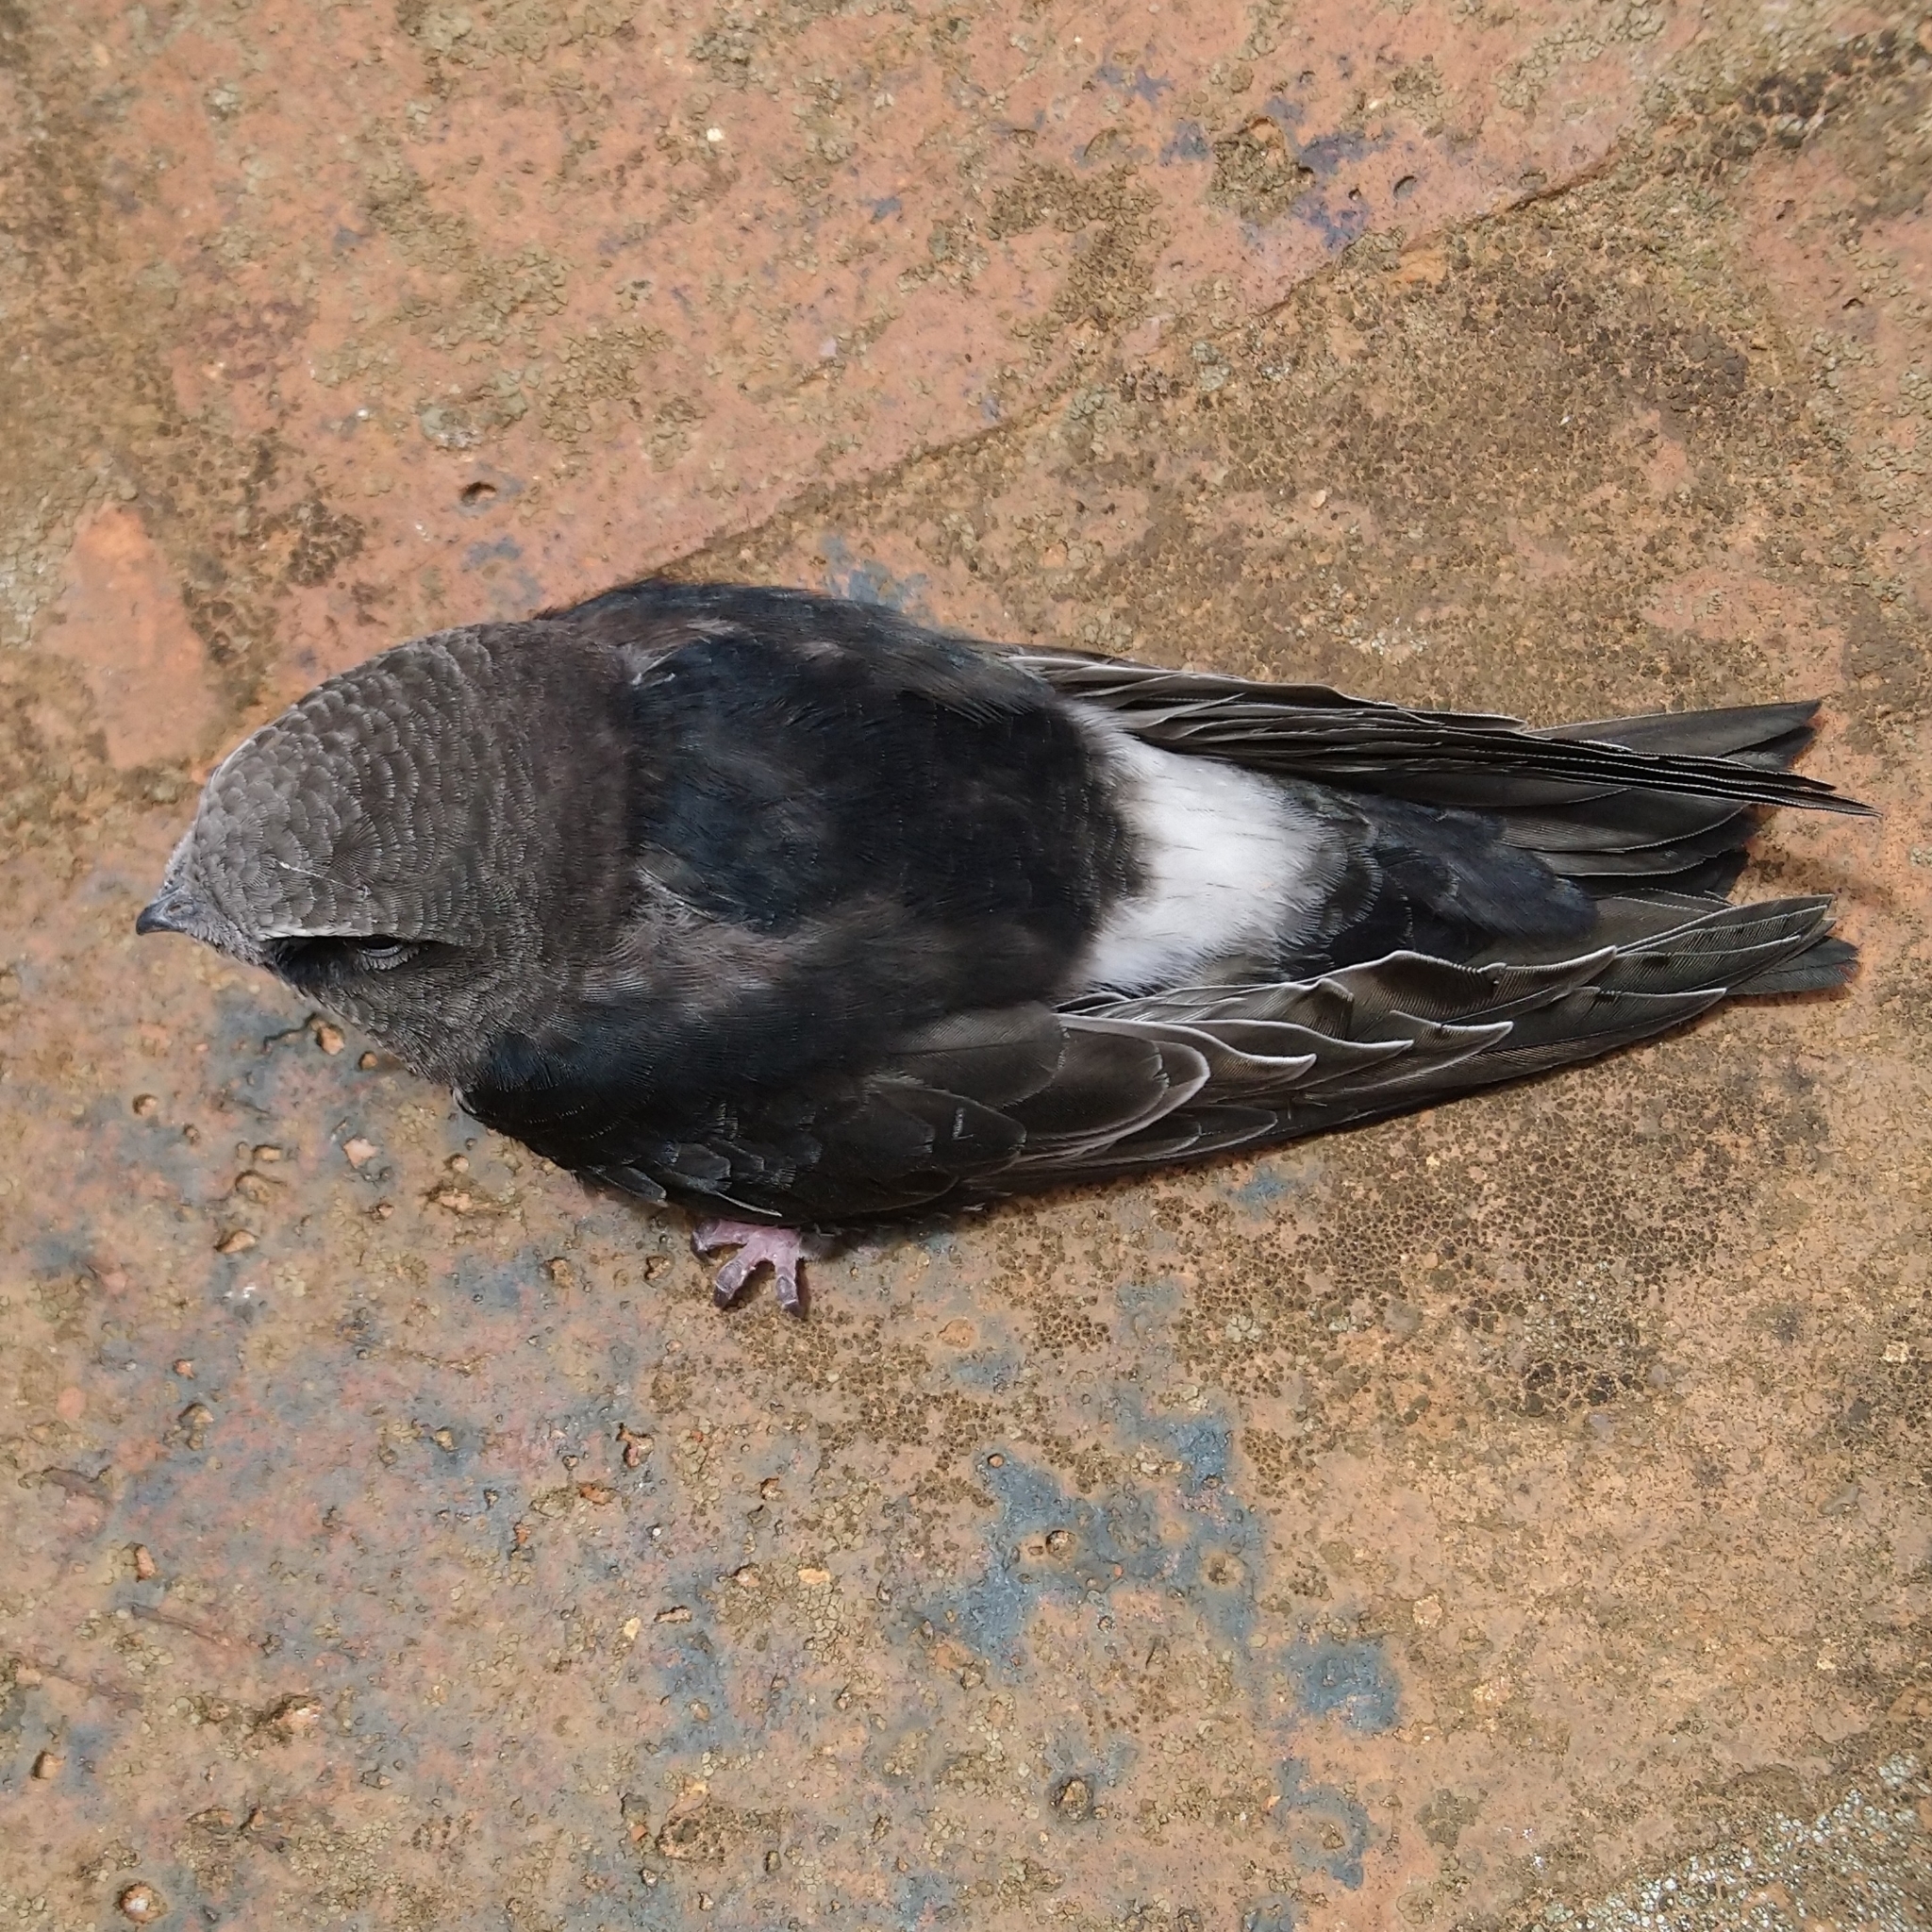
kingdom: Animalia
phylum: Chordata
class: Aves
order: Apodiformes
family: Apodidae
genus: Apus
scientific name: Apus horus
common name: Horus swift
